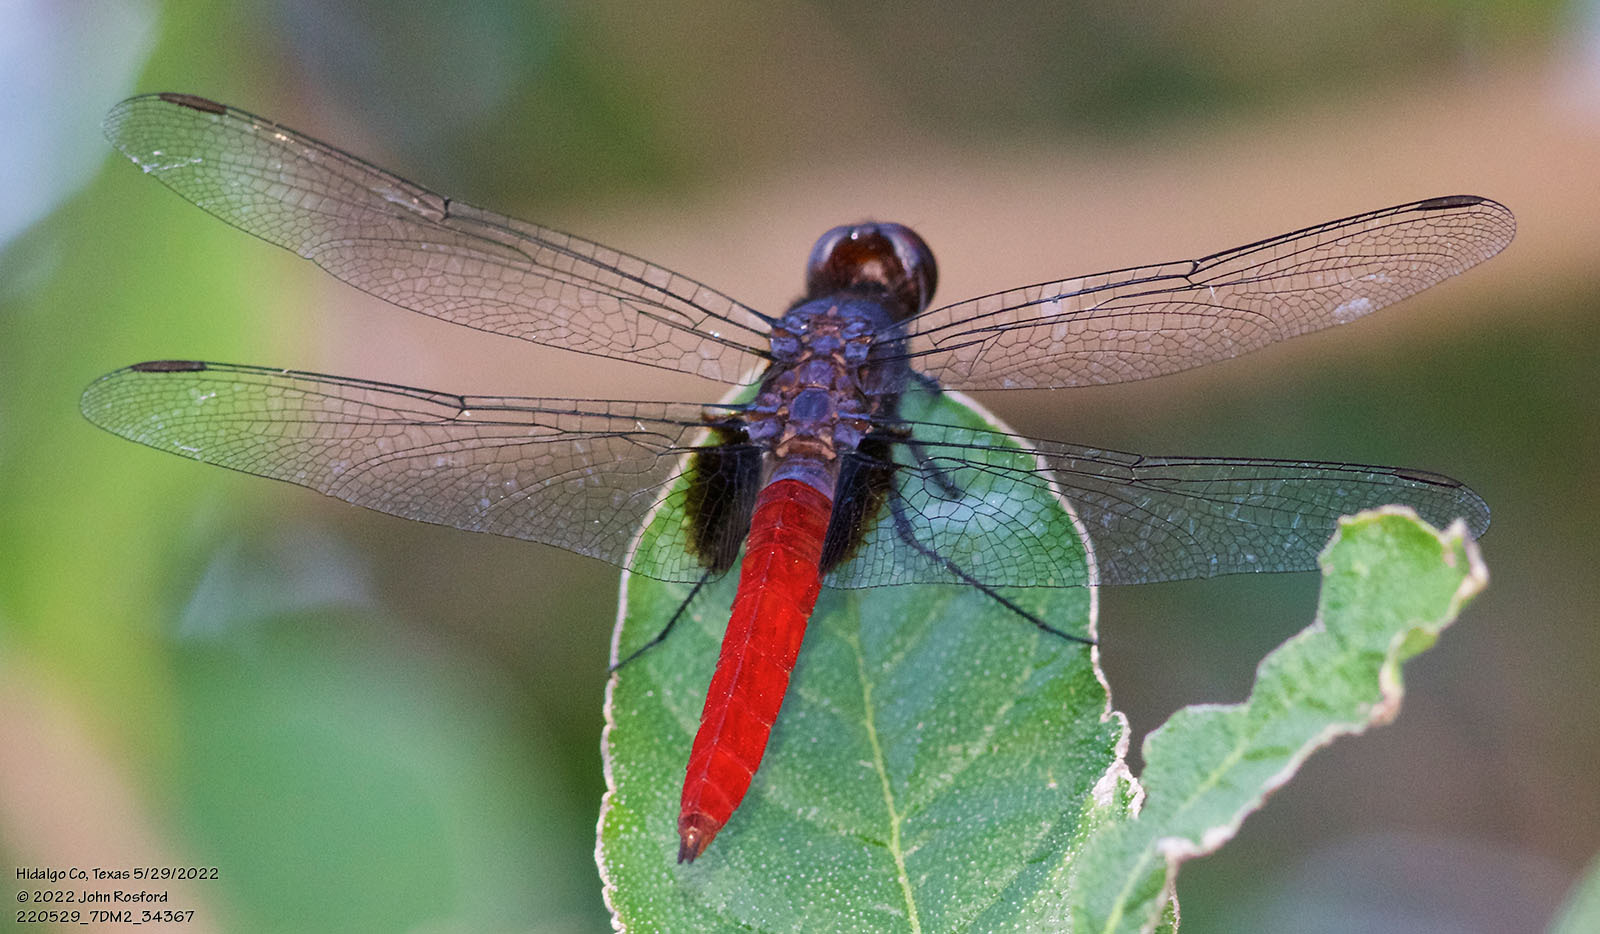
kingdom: Animalia
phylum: Arthropoda
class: Insecta
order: Odonata
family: Libellulidae
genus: Planiplax
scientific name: Planiplax sanguiniventris
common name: Mexican scarlet-tail
